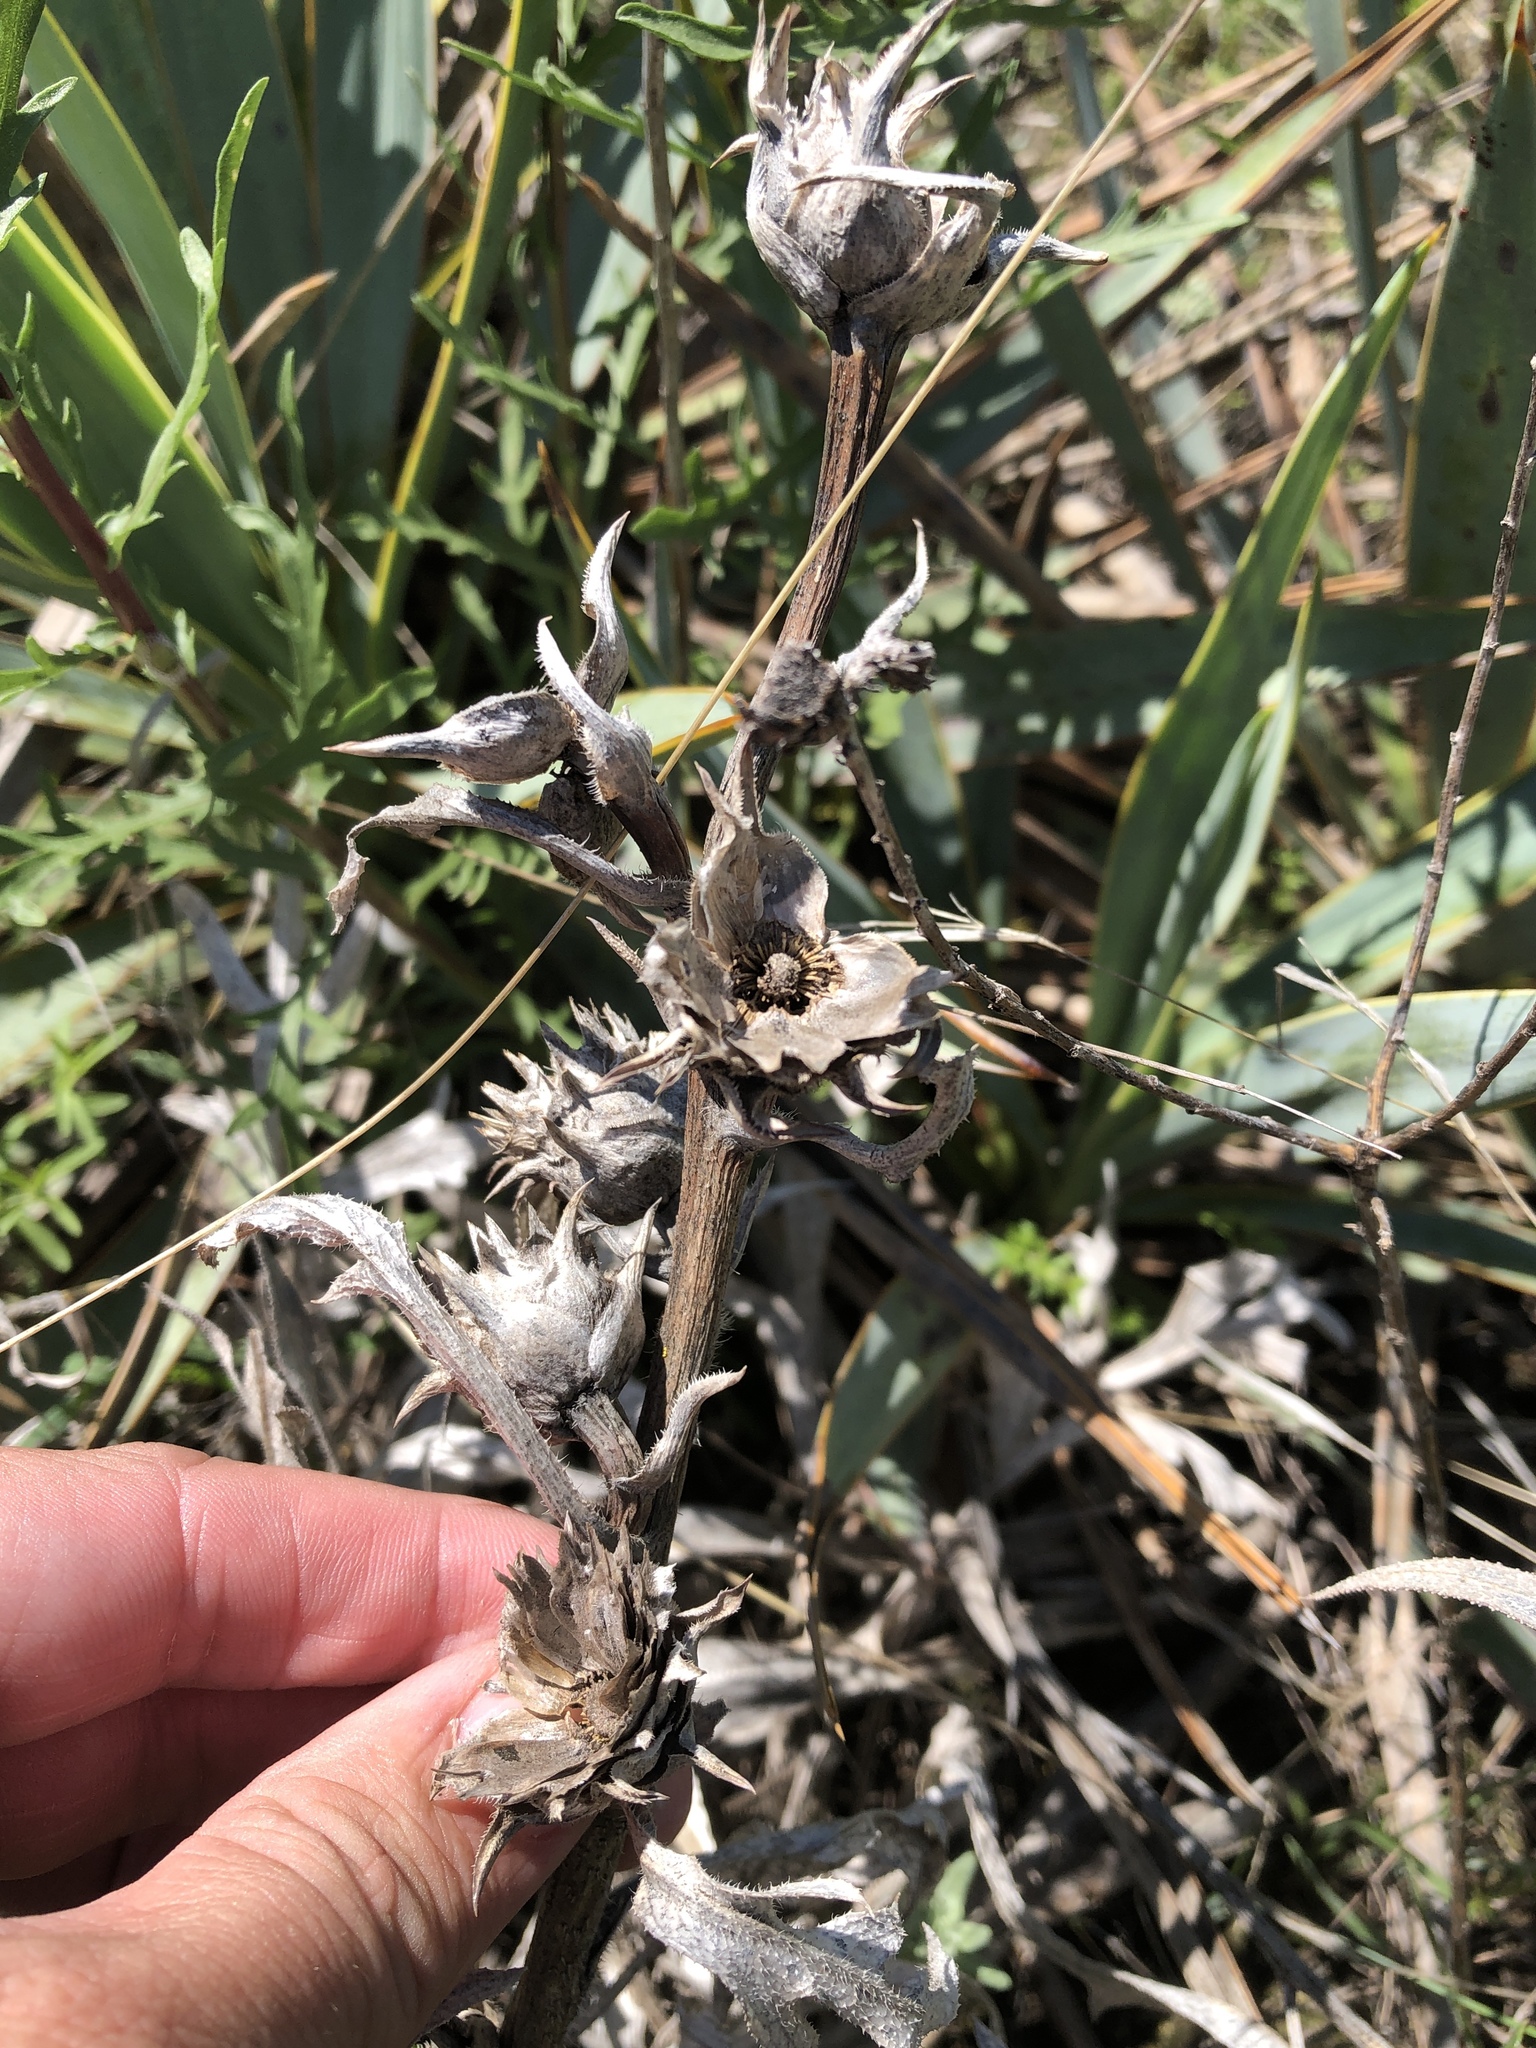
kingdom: Plantae
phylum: Tracheophyta
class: Magnoliopsida
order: Asterales
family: Asteraceae
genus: Silphium
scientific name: Silphium albiflorum
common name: White rosinweed
